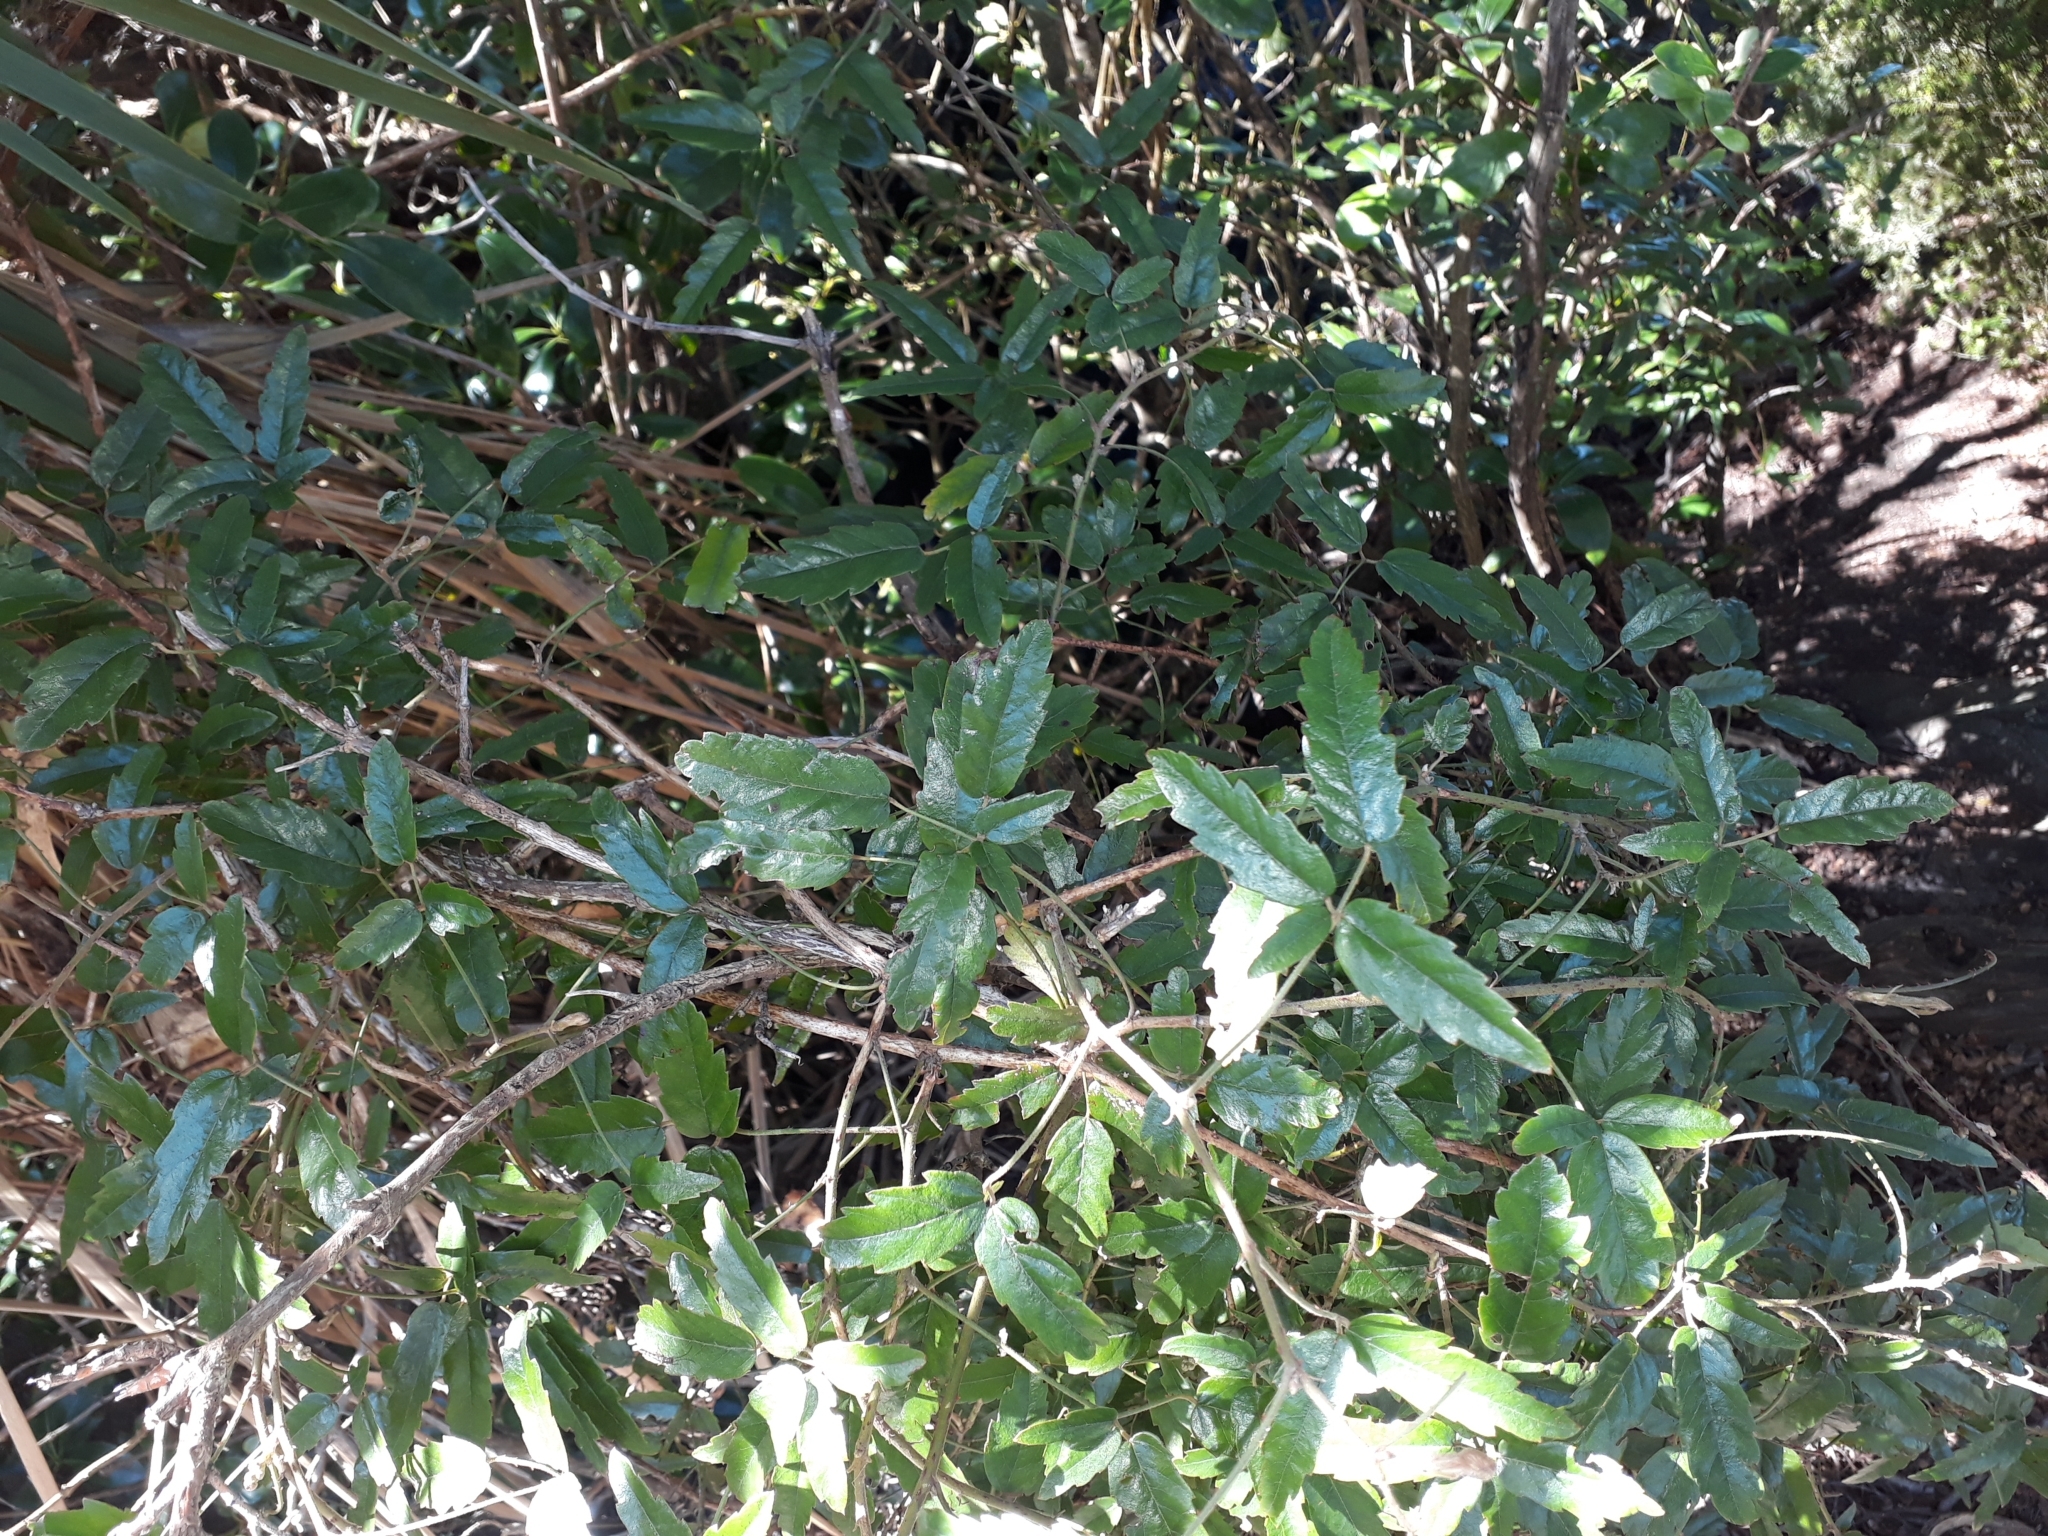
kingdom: Plantae
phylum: Tracheophyta
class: Magnoliopsida
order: Rosales
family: Rosaceae
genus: Rubus
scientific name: Rubus schmidelioides
